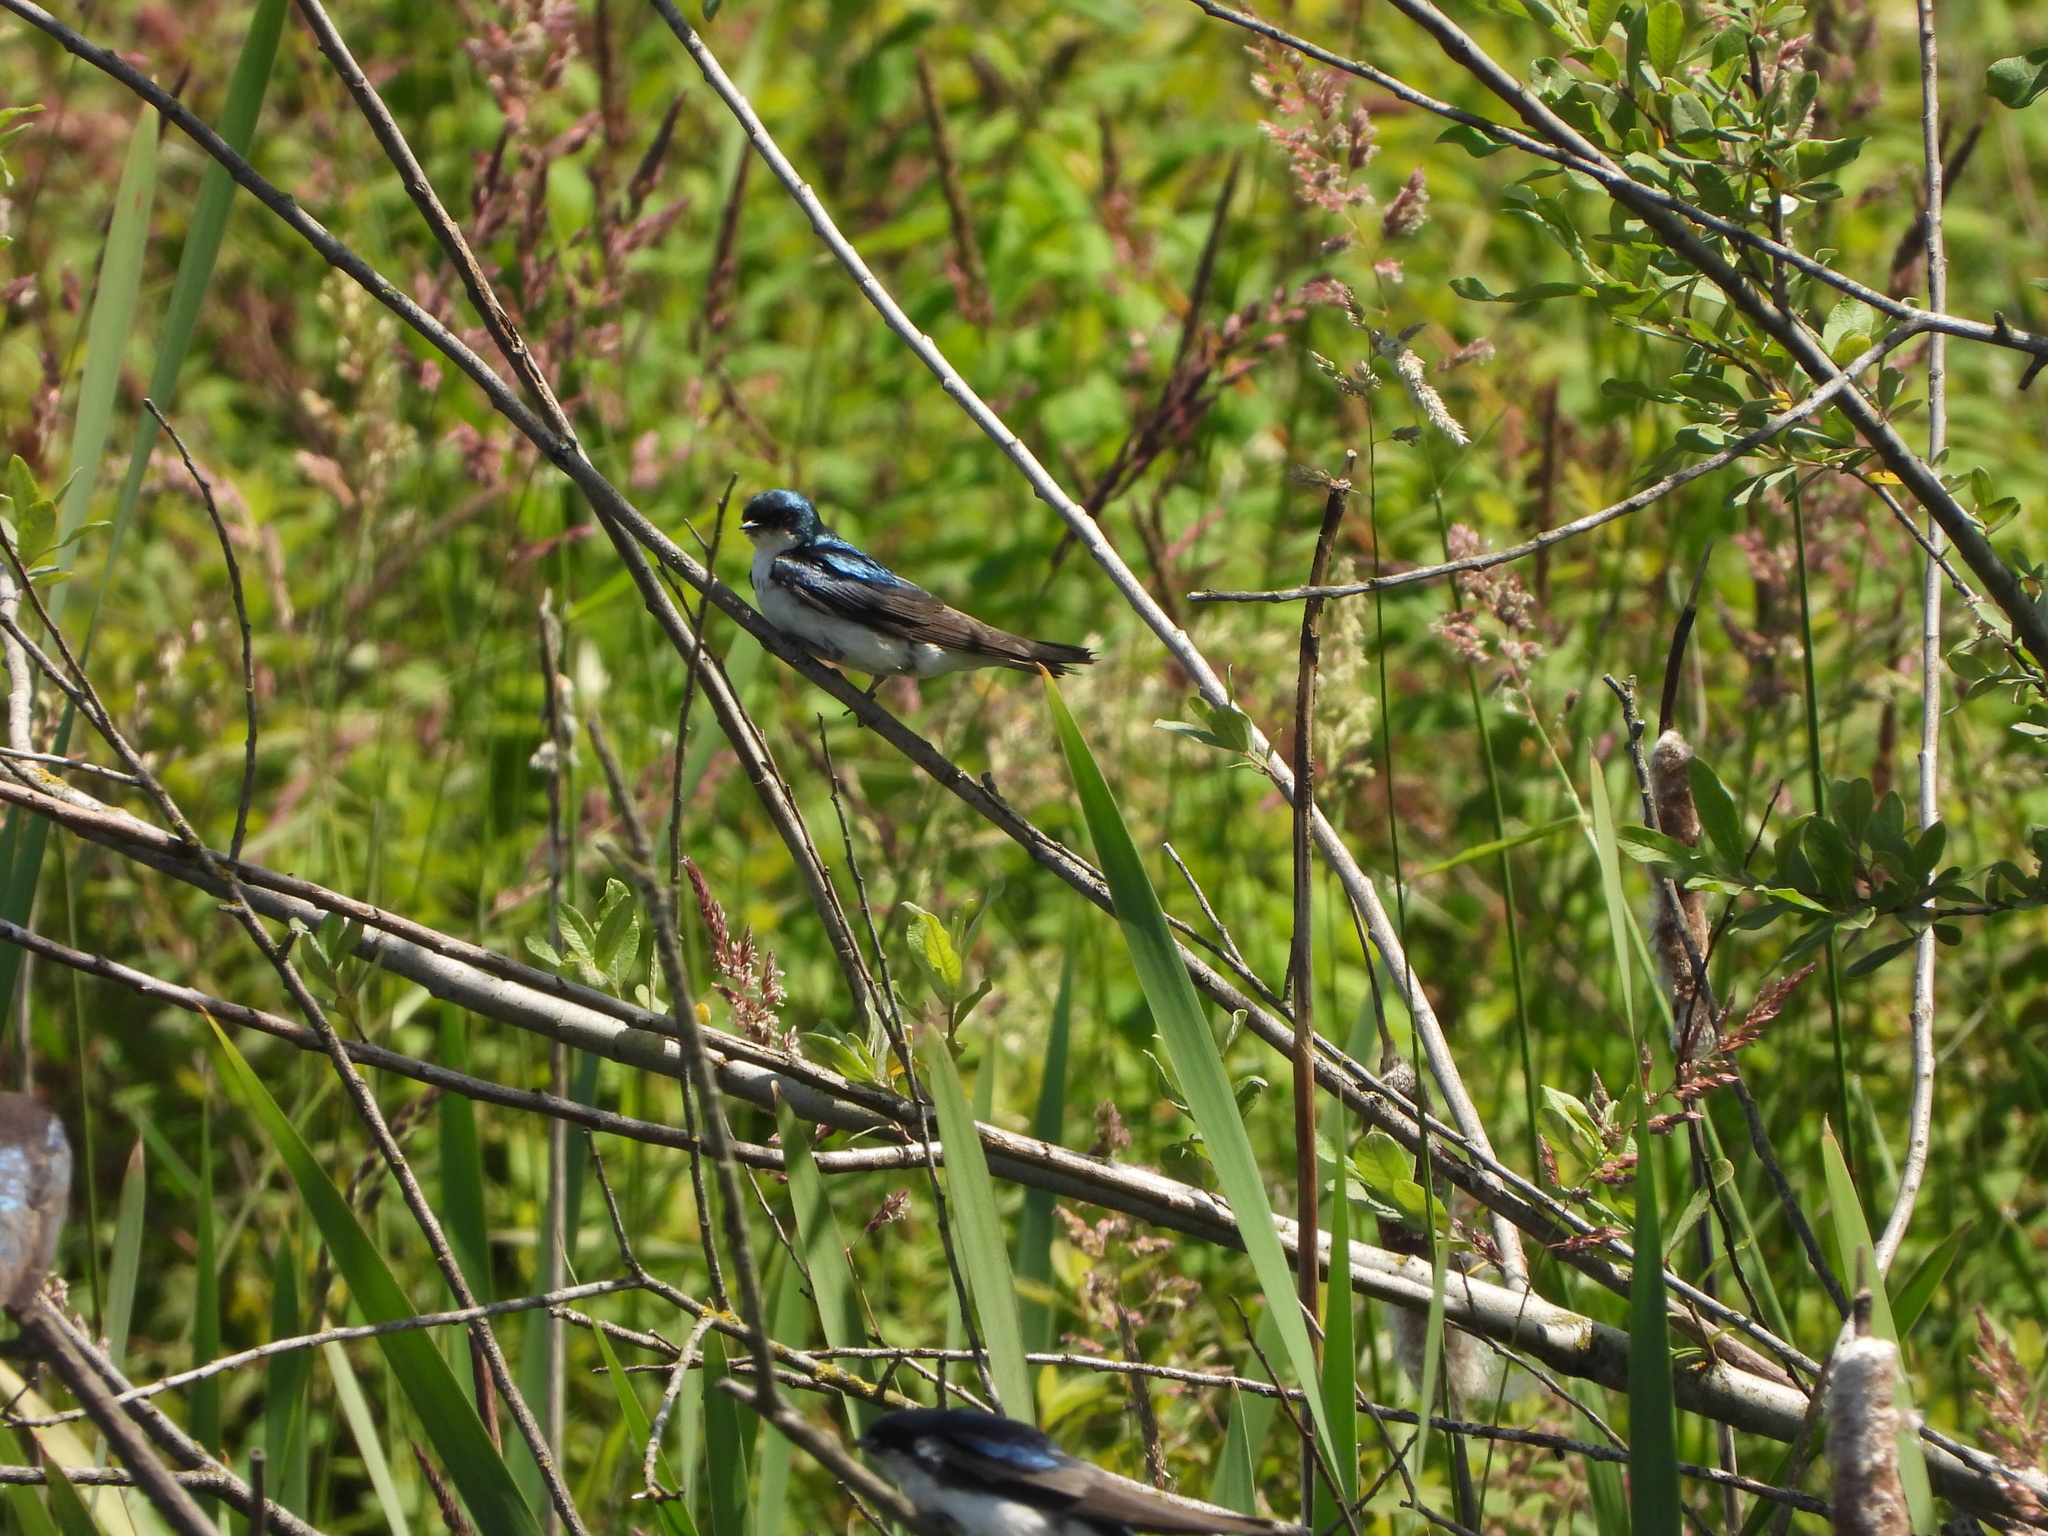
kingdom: Animalia
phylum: Chordata
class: Aves
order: Passeriformes
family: Hirundinidae
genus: Tachycineta
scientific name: Tachycineta bicolor
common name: Tree swallow
